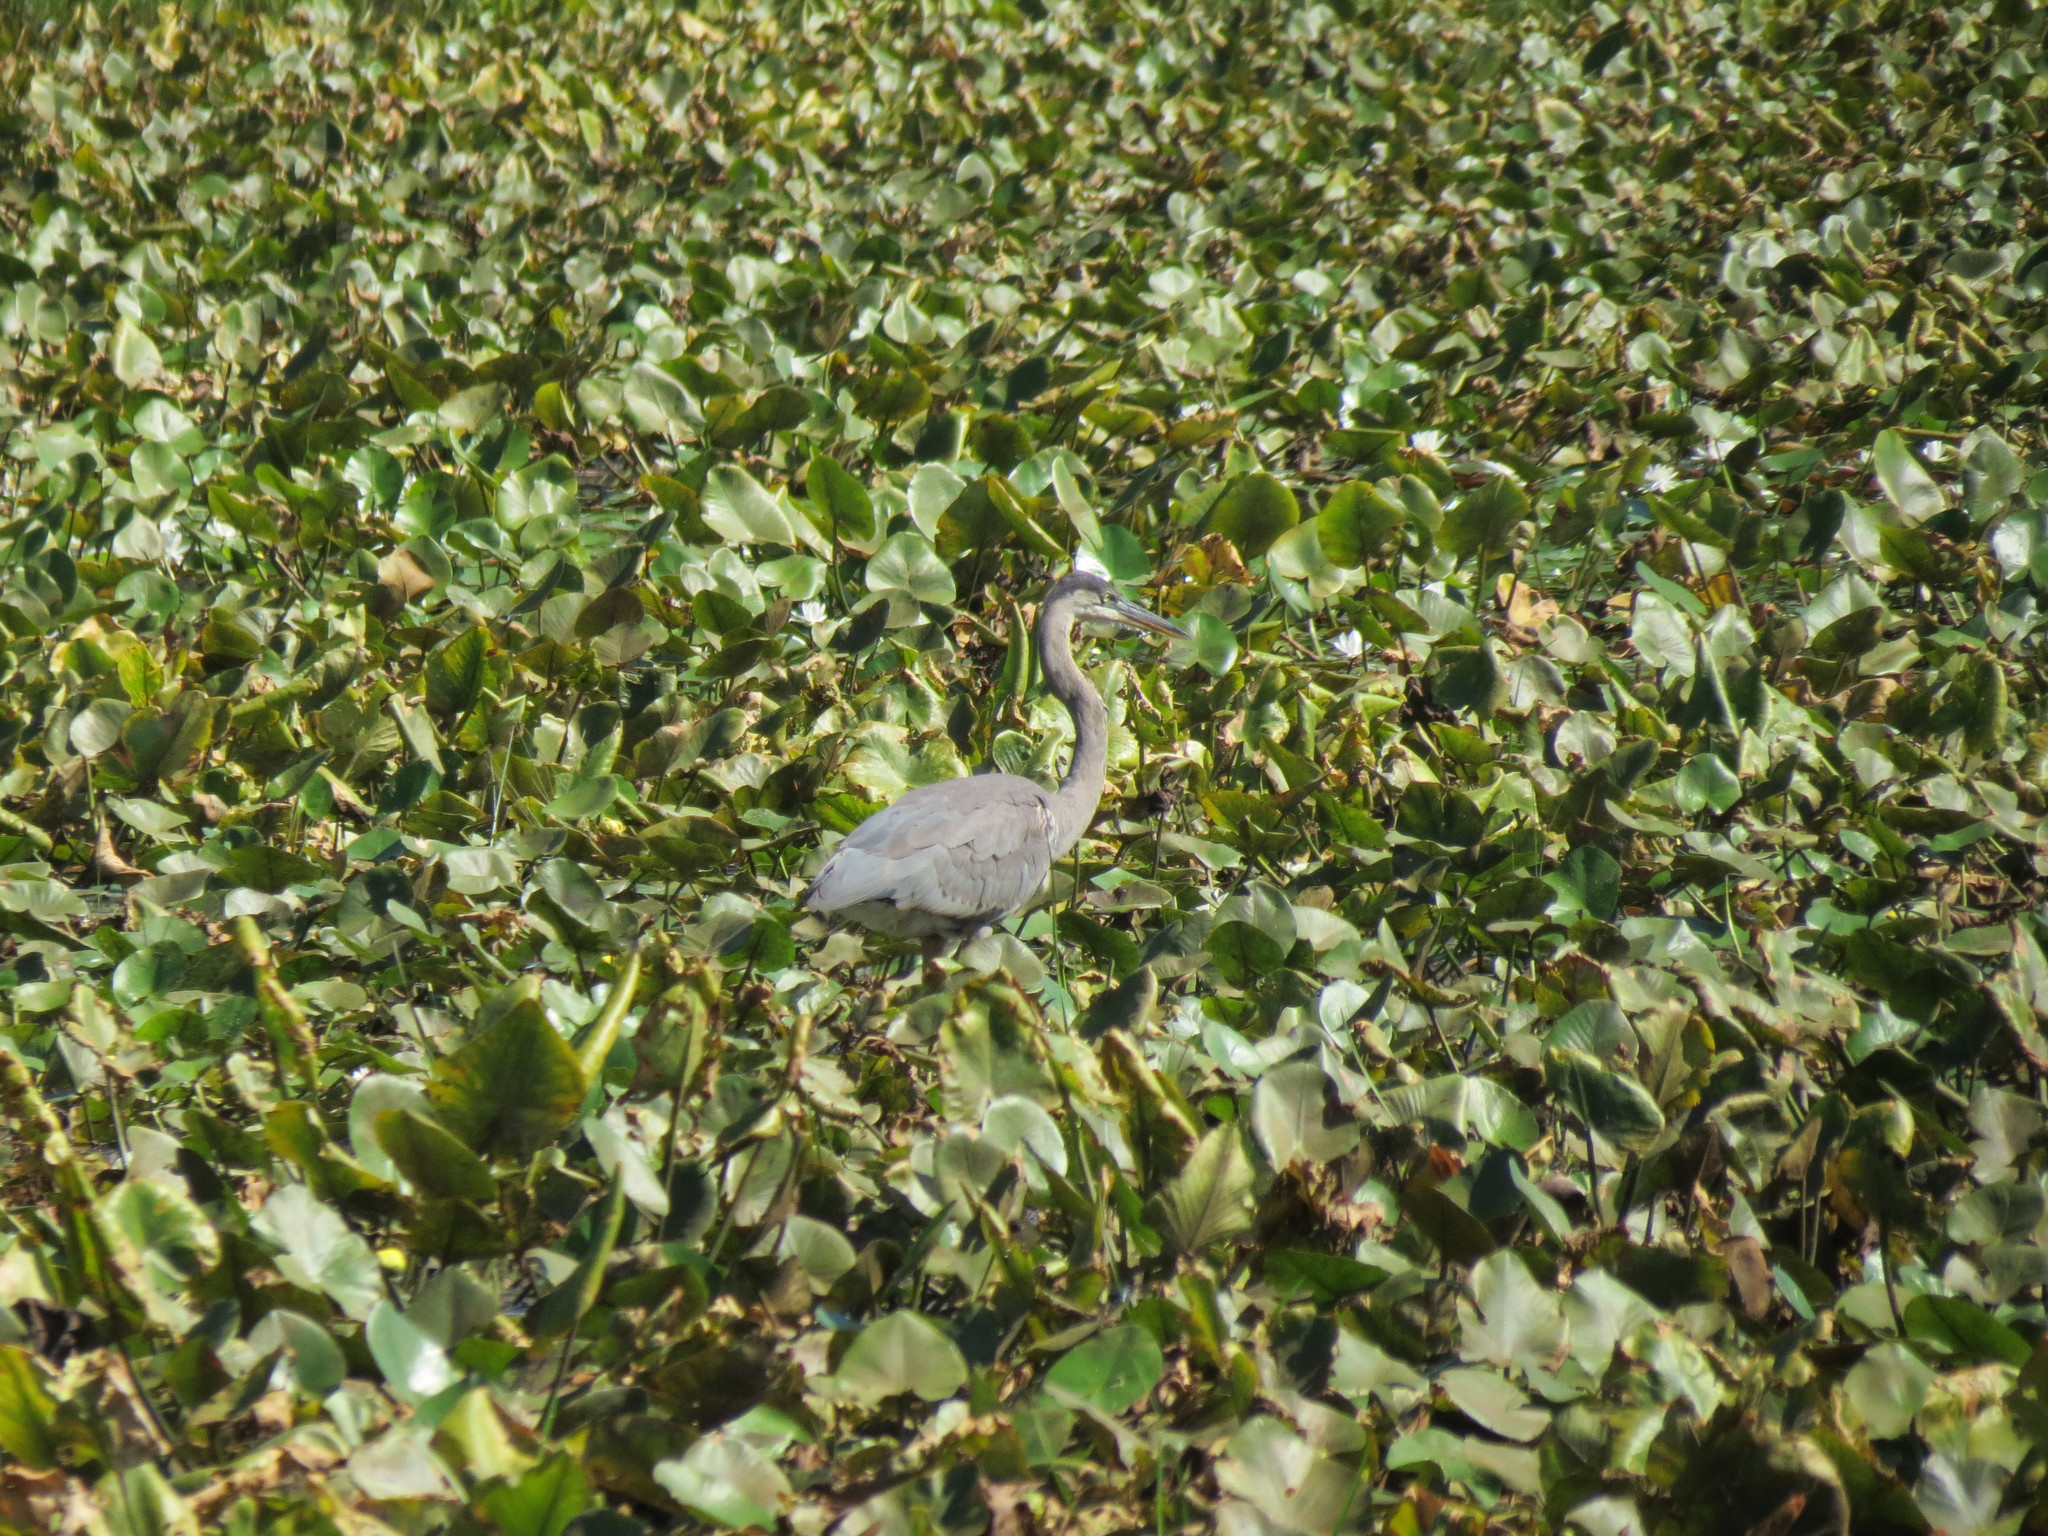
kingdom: Animalia
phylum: Chordata
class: Aves
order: Pelecaniformes
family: Ardeidae
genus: Ardea
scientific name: Ardea herodias
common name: Great blue heron
